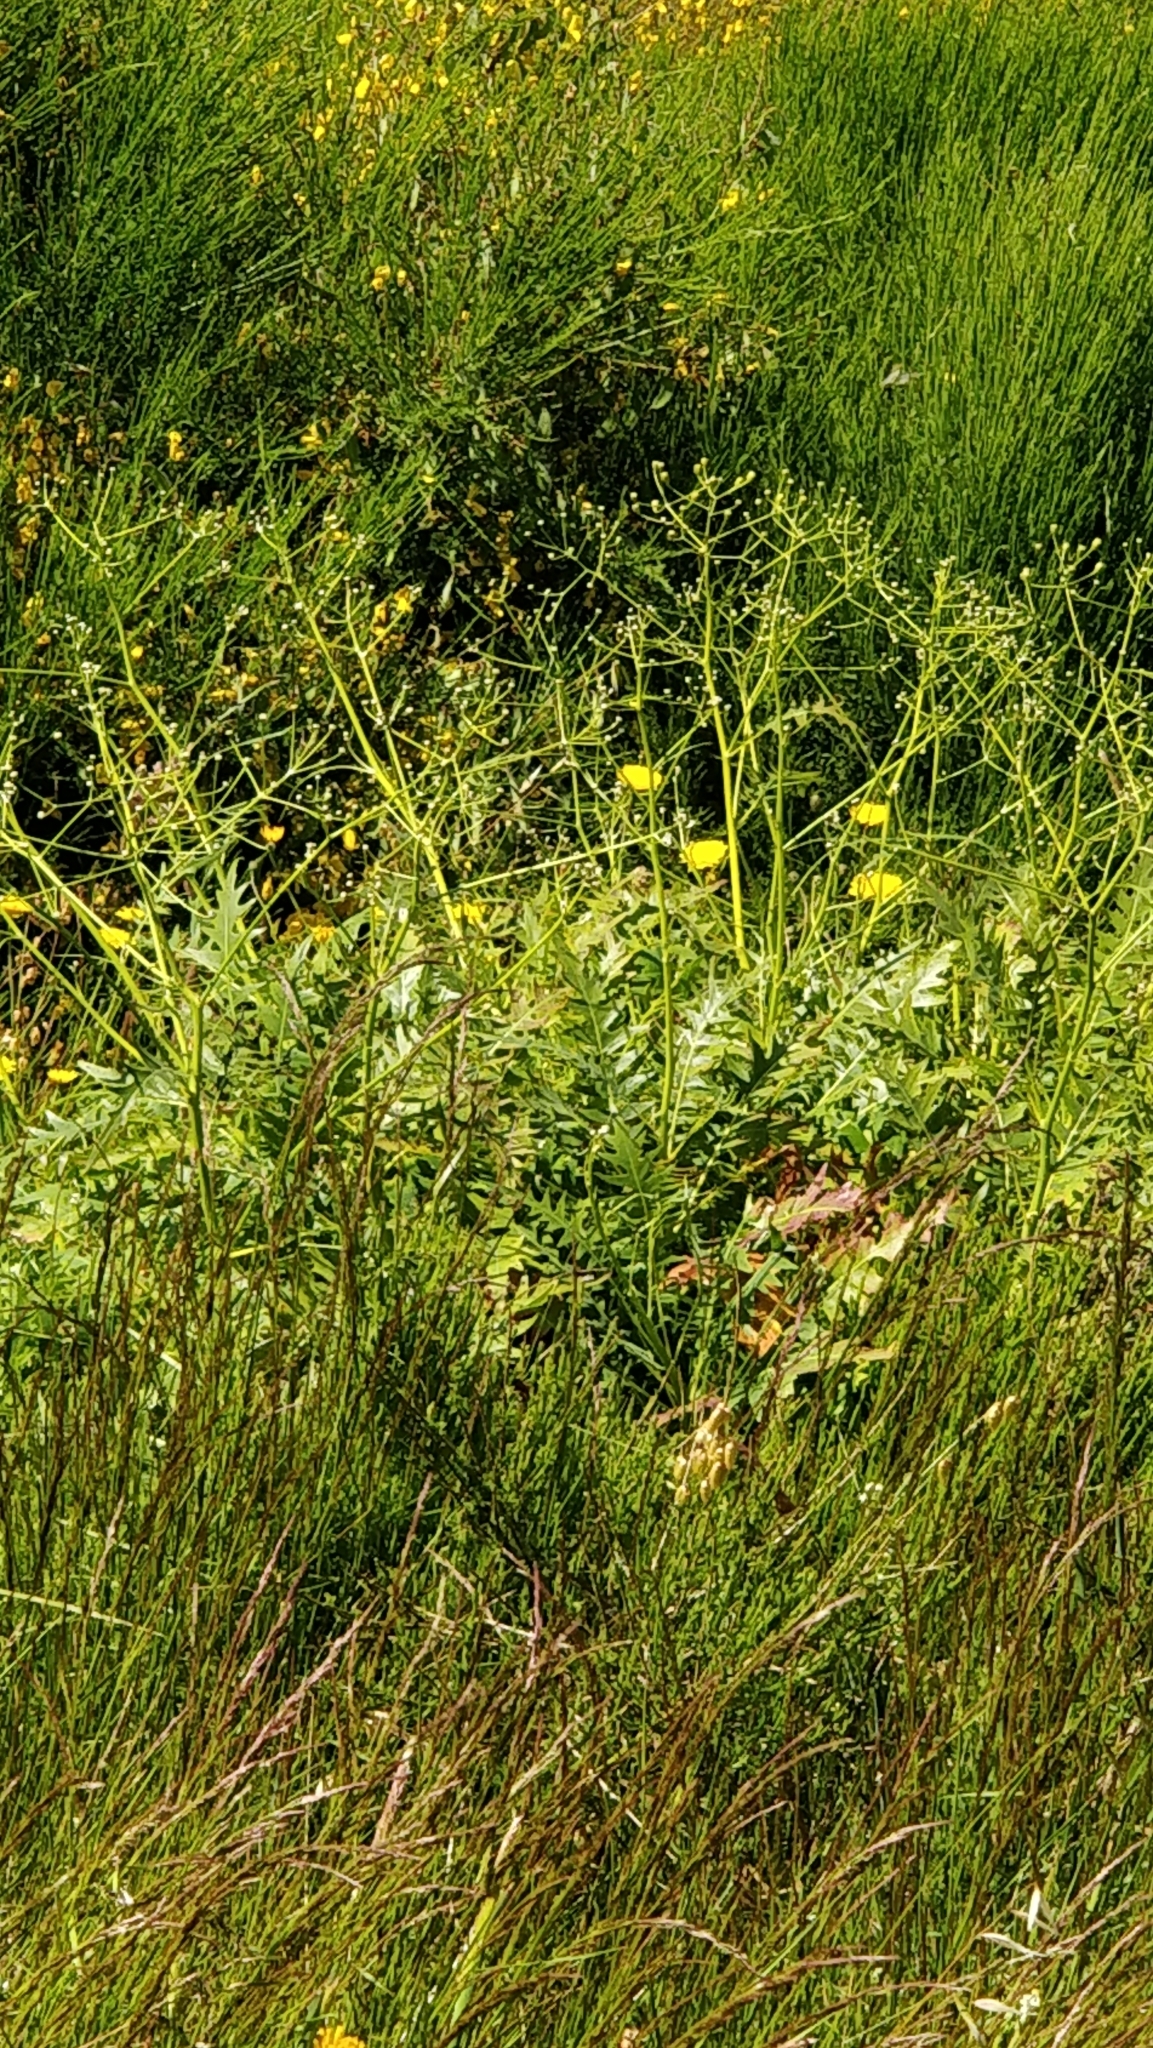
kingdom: Plantae
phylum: Tracheophyta
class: Magnoliopsida
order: Asterales
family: Asteraceae
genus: Sonchus
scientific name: Sonchus pinnatus
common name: Wing-leaved sow-thistle
